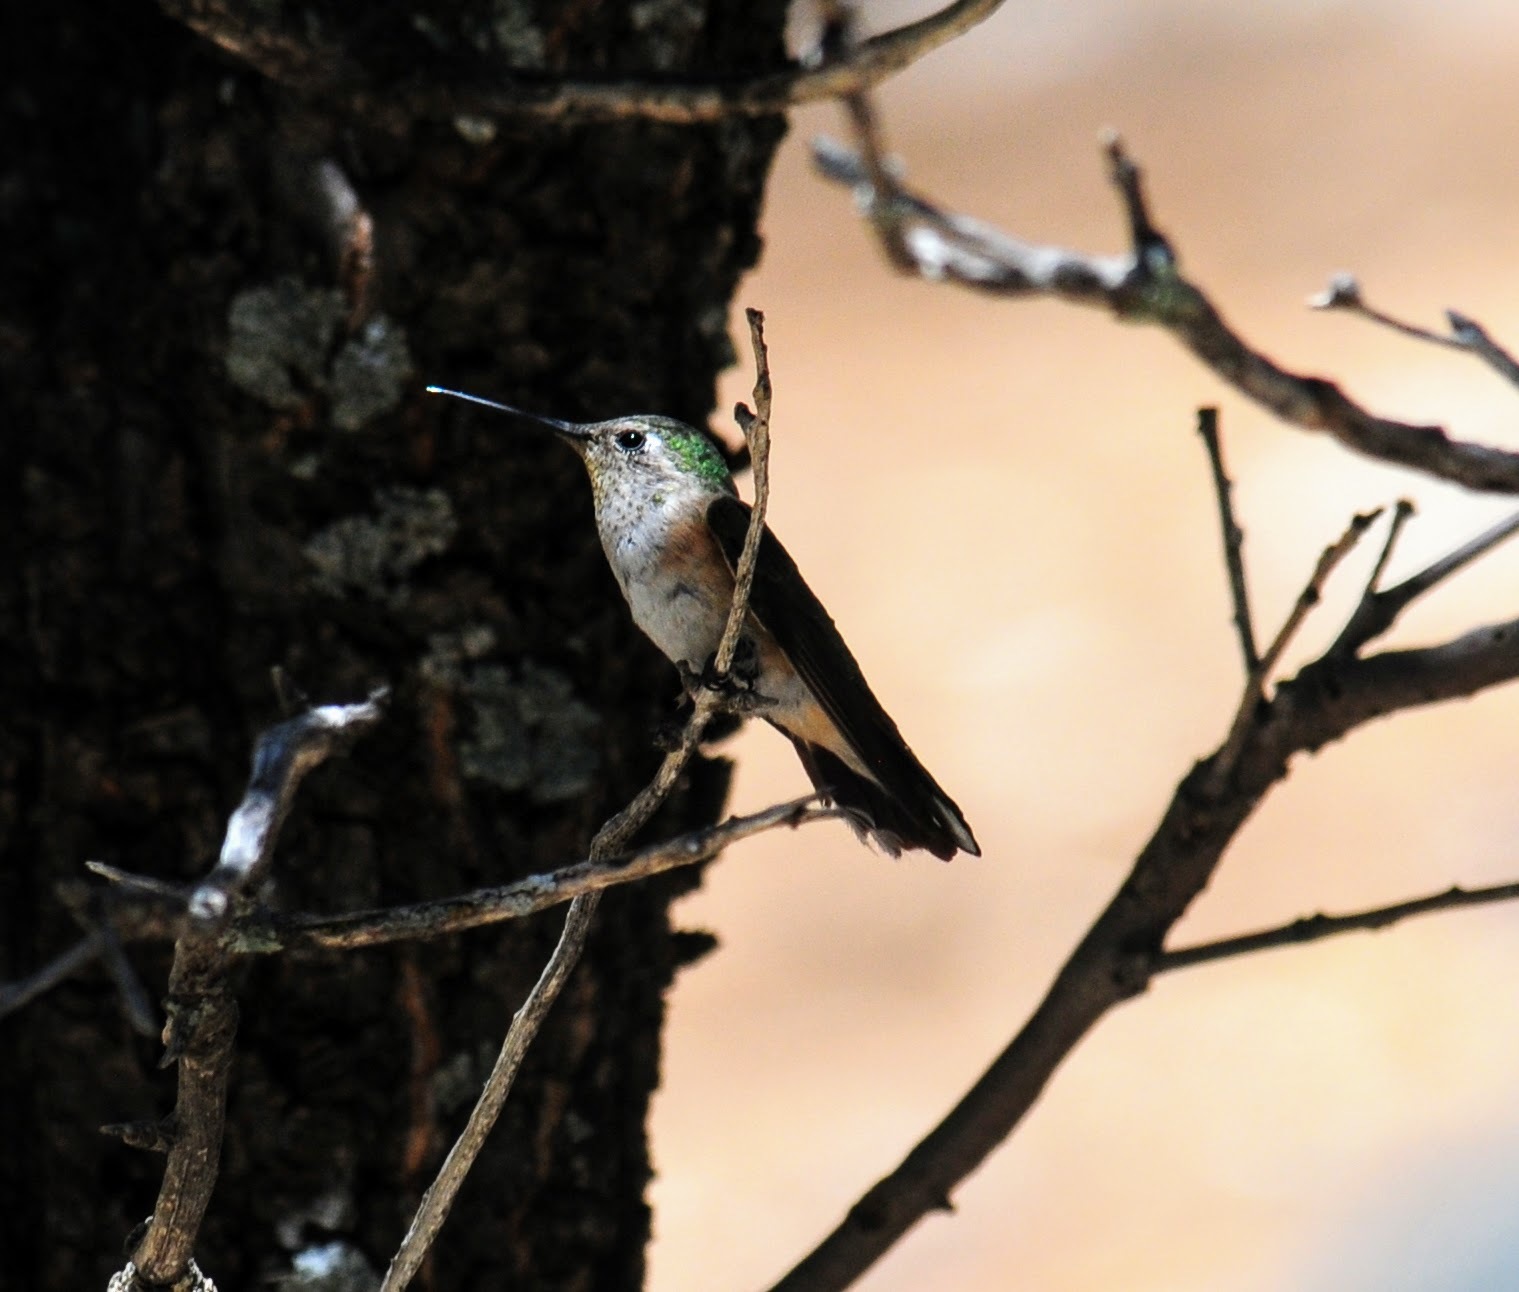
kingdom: Animalia
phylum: Chordata
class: Aves
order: Apodiformes
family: Trochilidae
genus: Selasphorus
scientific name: Selasphorus platycercus
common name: Broad-tailed hummingbird
